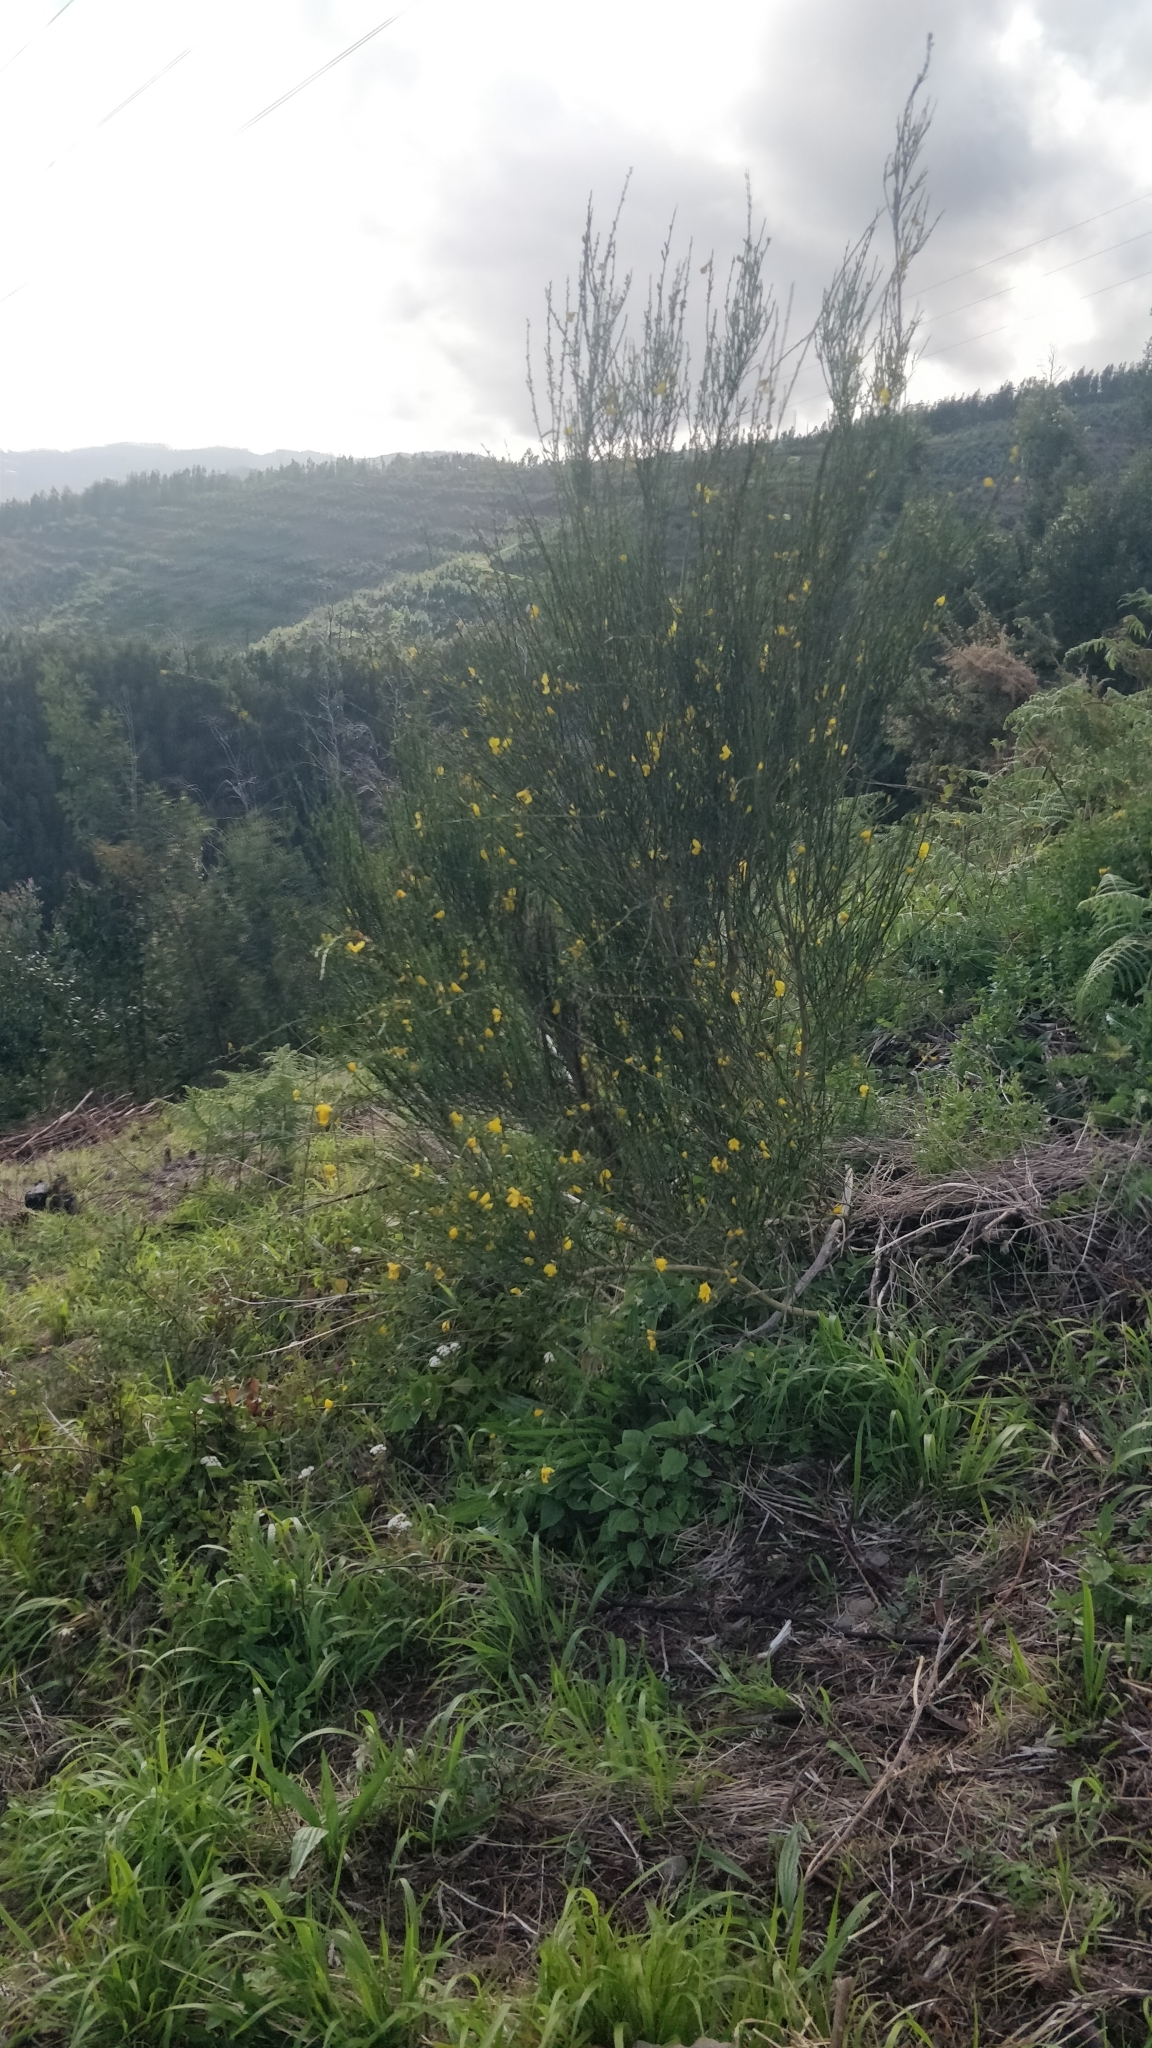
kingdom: Plantae
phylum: Tracheophyta
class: Magnoliopsida
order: Fabales
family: Fabaceae
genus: Cytisus
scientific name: Cytisus scoparius
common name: Scotch broom
